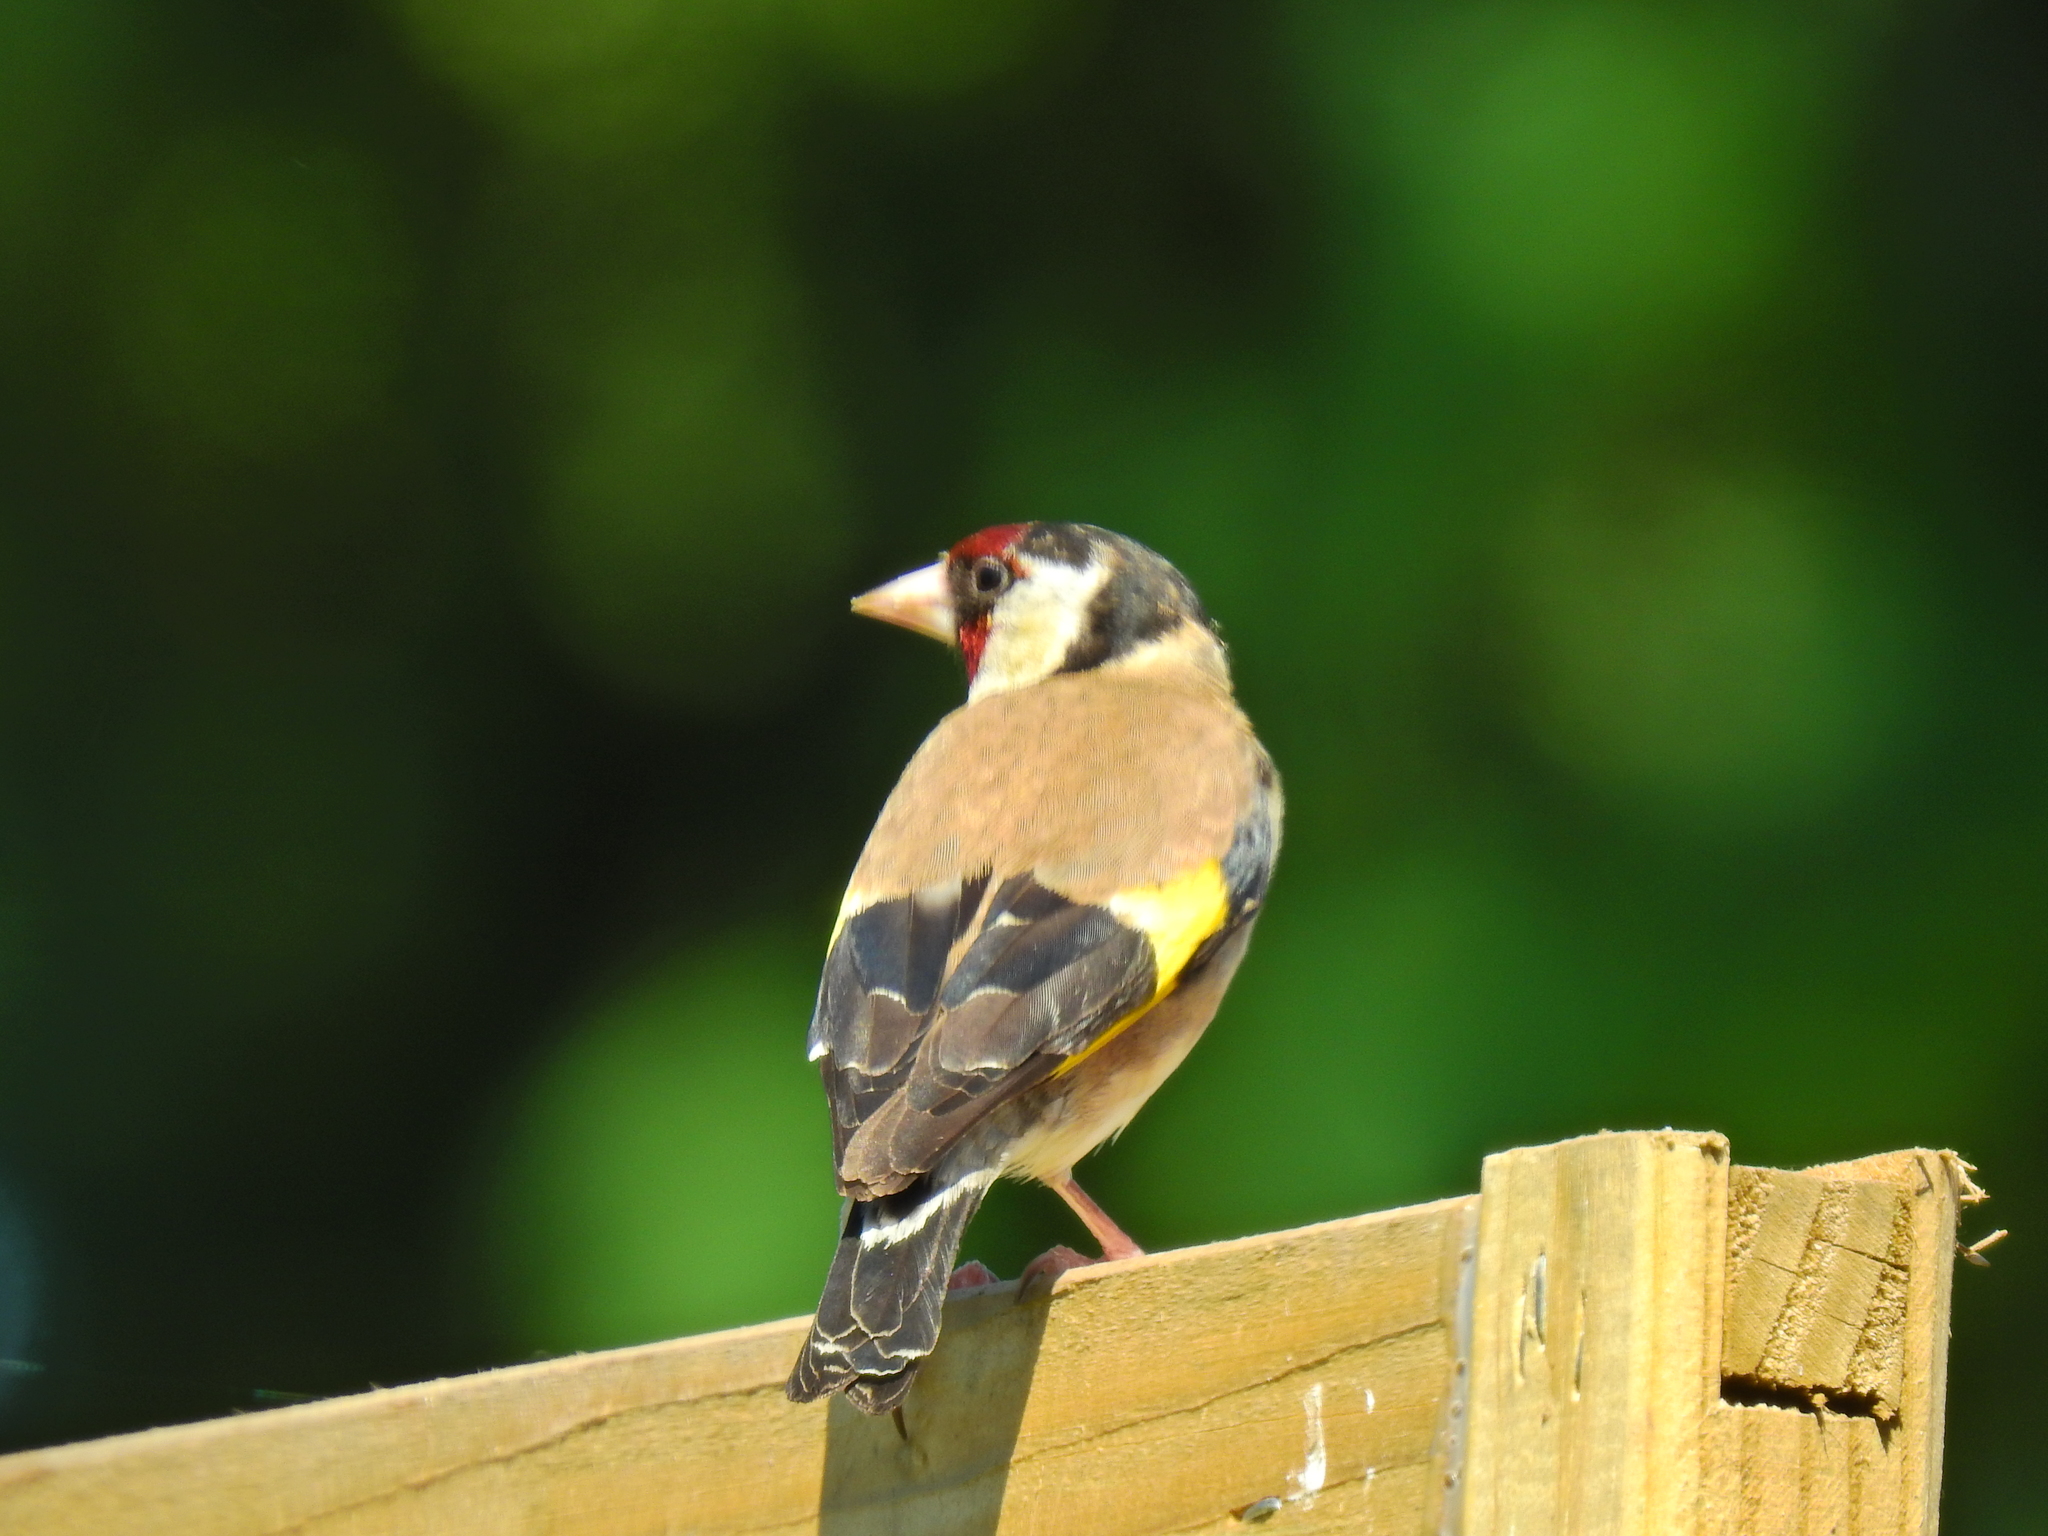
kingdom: Animalia
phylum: Chordata
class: Aves
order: Passeriformes
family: Fringillidae
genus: Carduelis
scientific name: Carduelis carduelis
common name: European goldfinch
